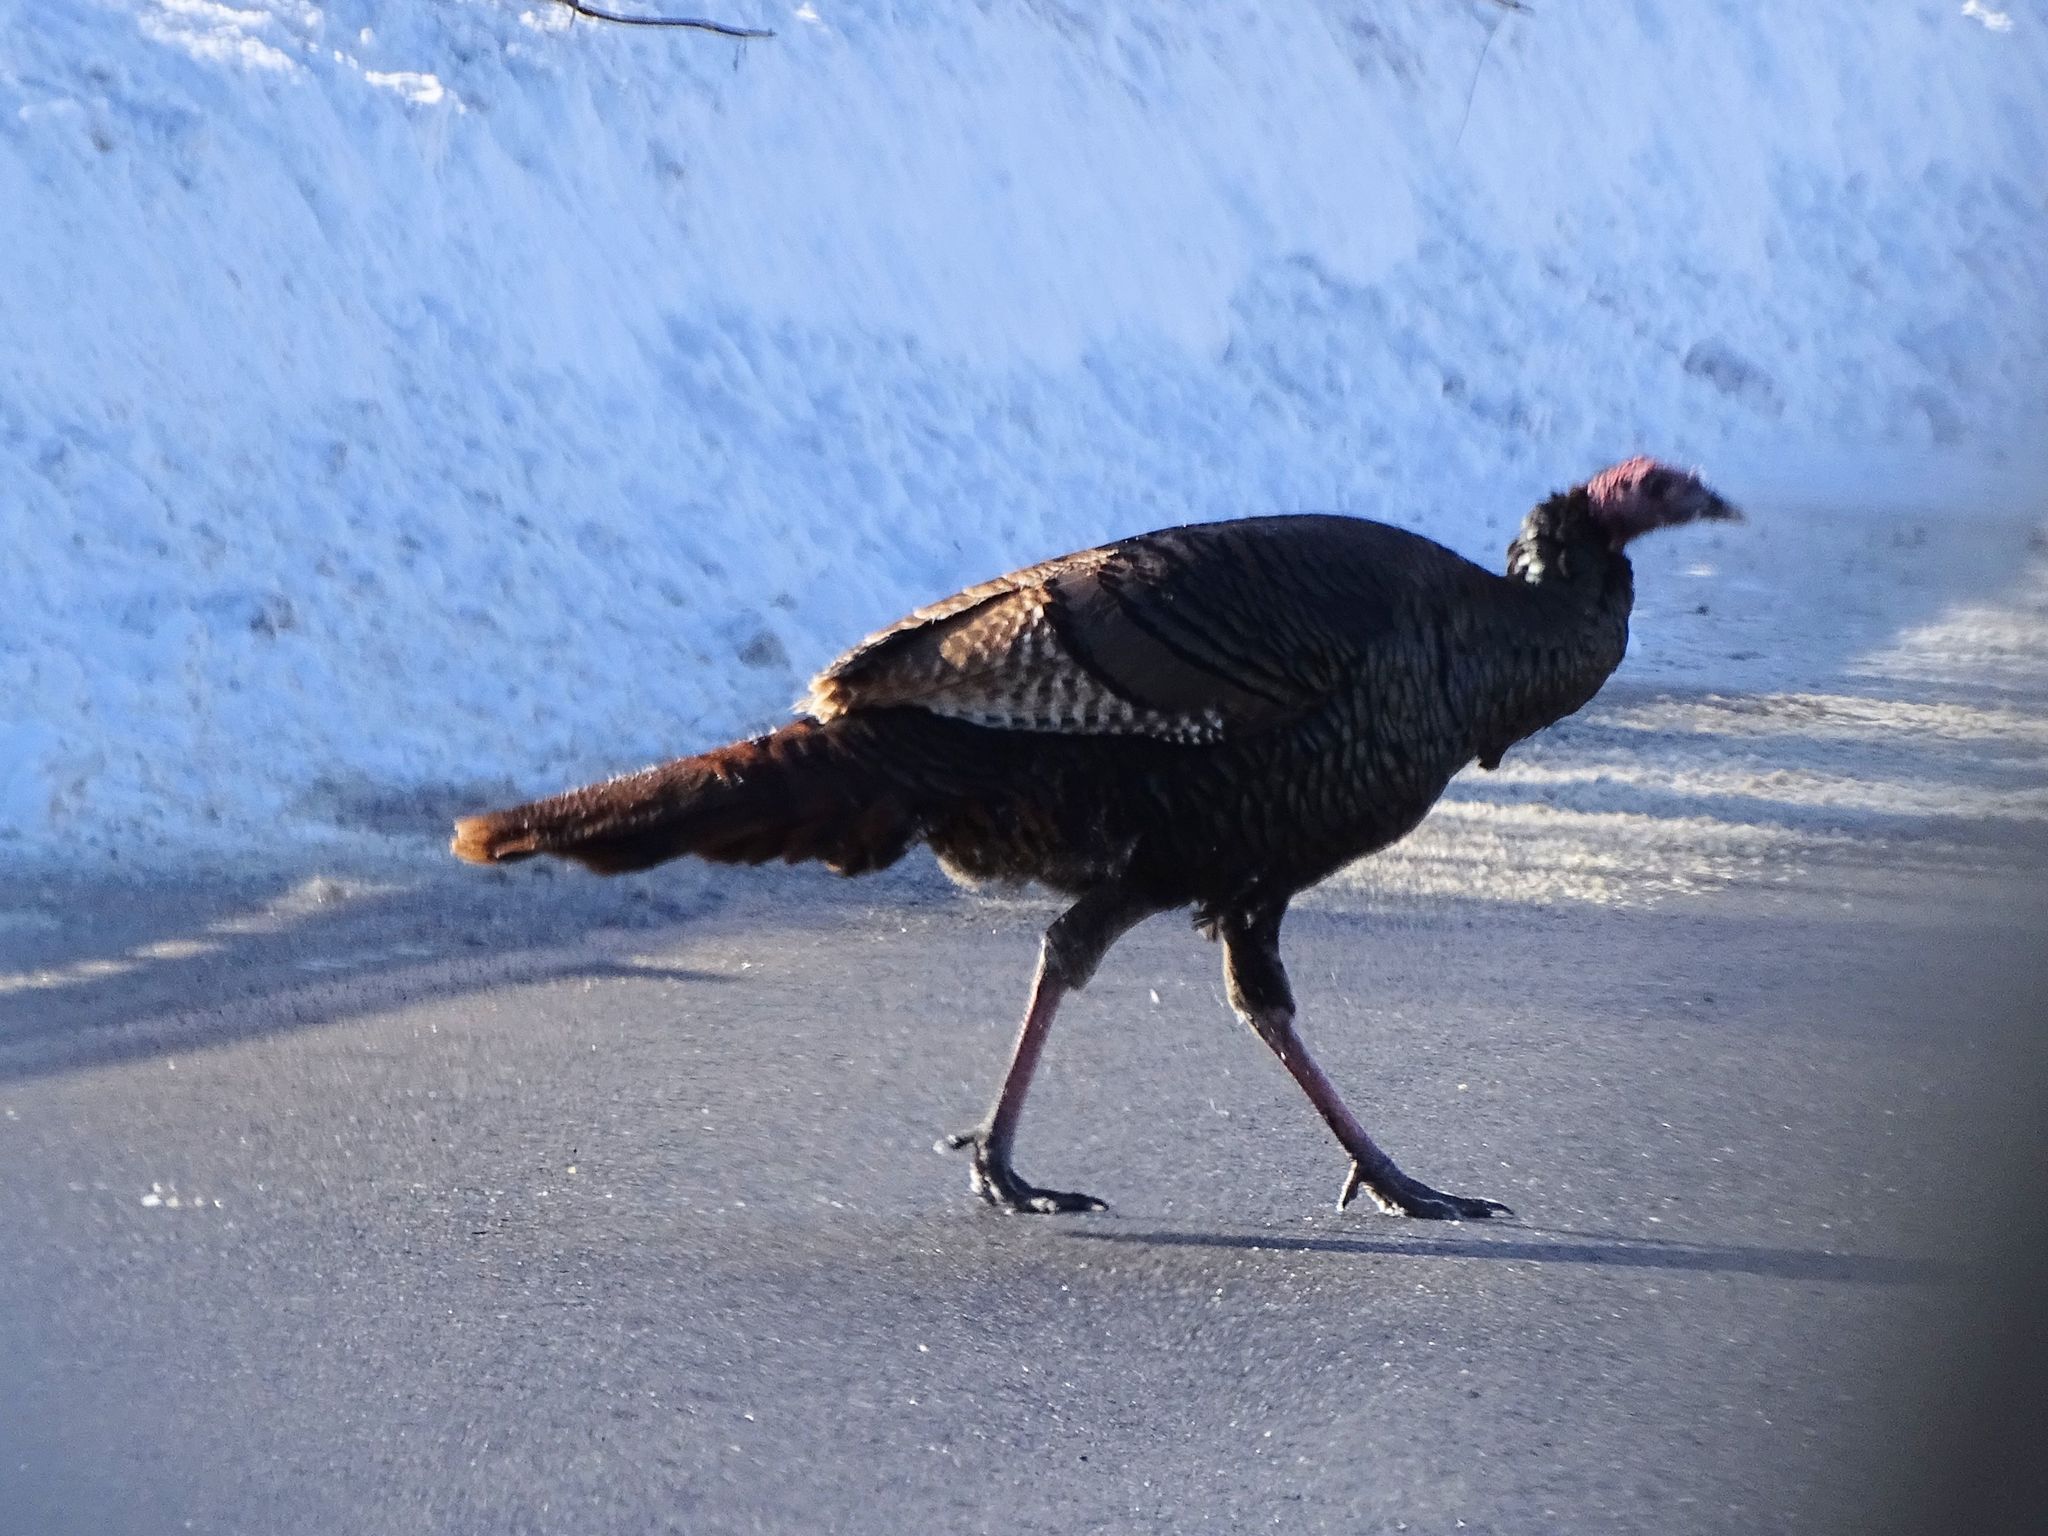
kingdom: Animalia
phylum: Chordata
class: Aves
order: Galliformes
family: Phasianidae
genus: Meleagris
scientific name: Meleagris gallopavo
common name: Wild turkey
